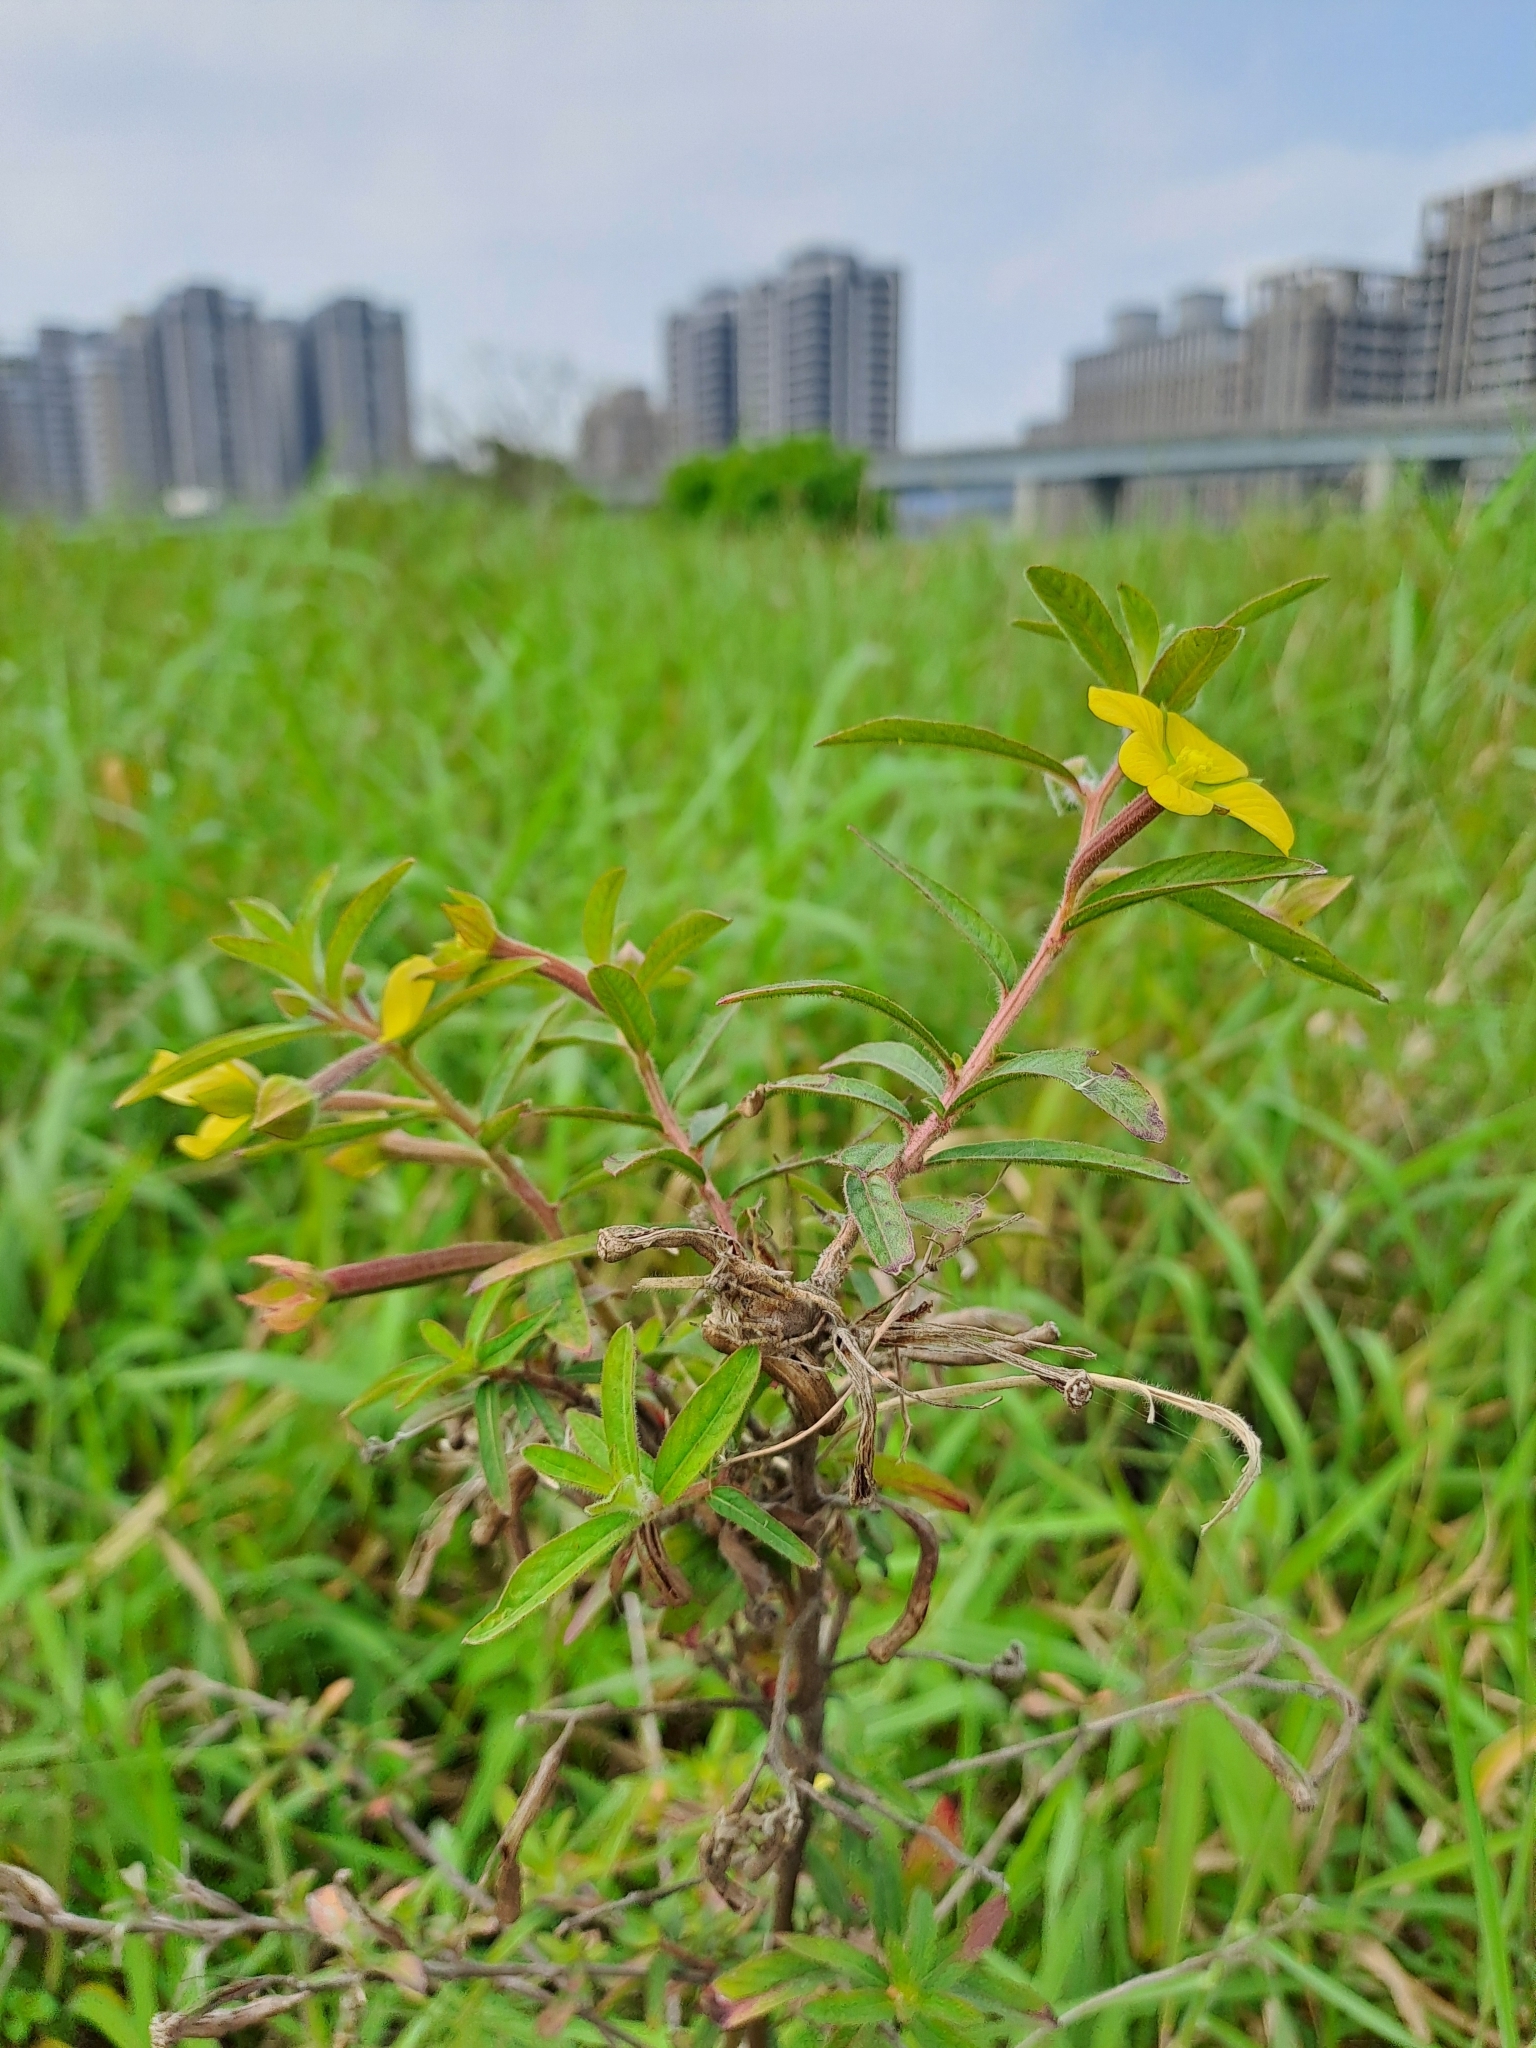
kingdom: Plantae
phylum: Tracheophyta
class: Magnoliopsida
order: Myrtales
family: Onagraceae
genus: Ludwigia
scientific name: Ludwigia octovalvis
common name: Water-primrose
